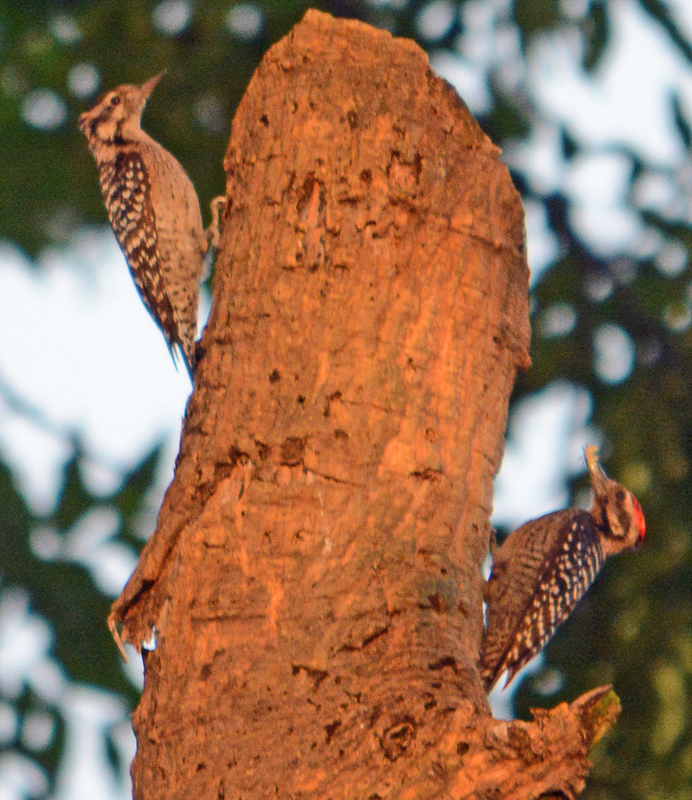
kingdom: Animalia
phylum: Chordata
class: Aves
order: Piciformes
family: Picidae
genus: Dryobates
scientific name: Dryobates scalaris
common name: Ladder-backed woodpecker
